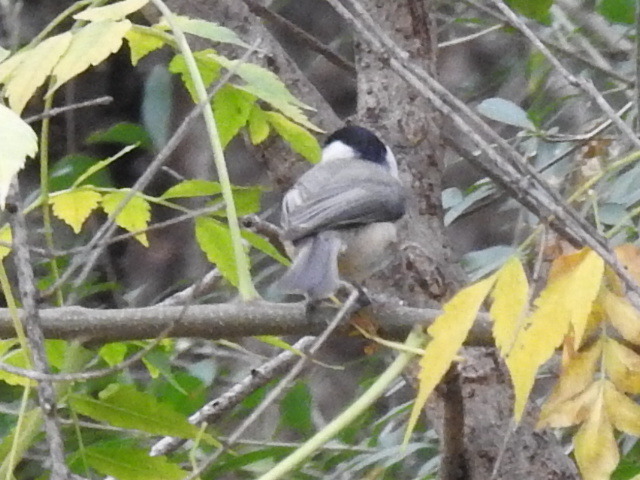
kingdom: Animalia
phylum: Chordata
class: Aves
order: Passeriformes
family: Paridae
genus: Poecile
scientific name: Poecile carolinensis
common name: Carolina chickadee
